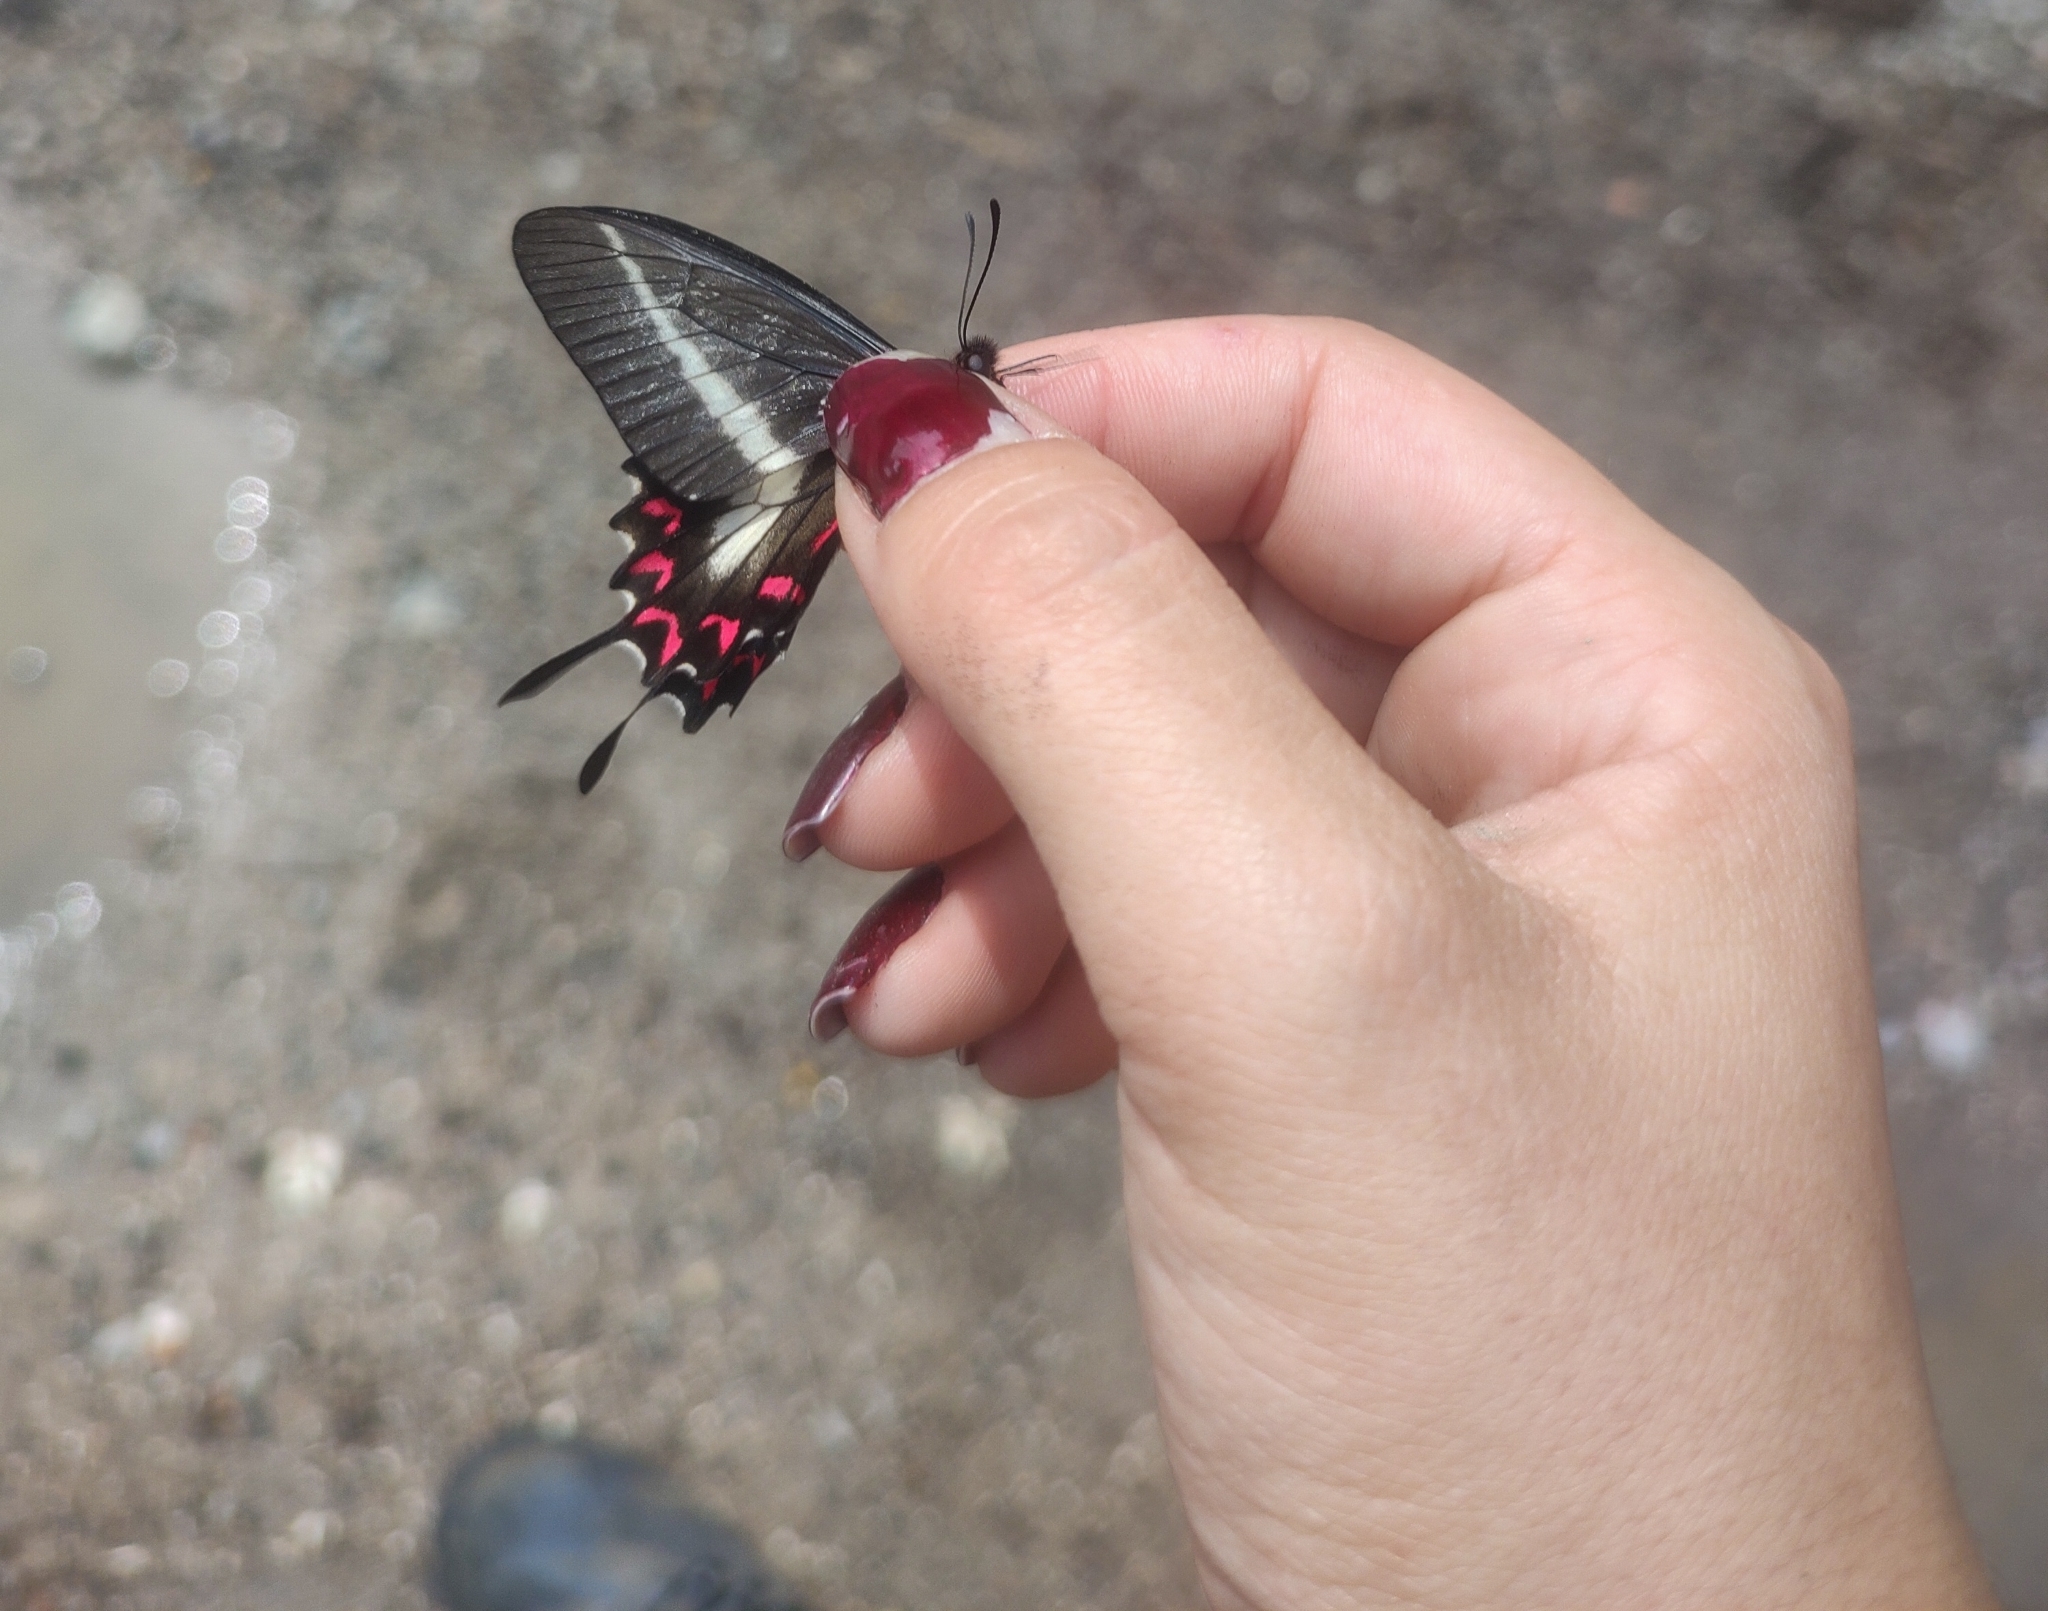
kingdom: Animalia
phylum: Arthropoda
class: Insecta
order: Lepidoptera
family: Papilionidae
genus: Mimoides
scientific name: Mimoides lysithous
